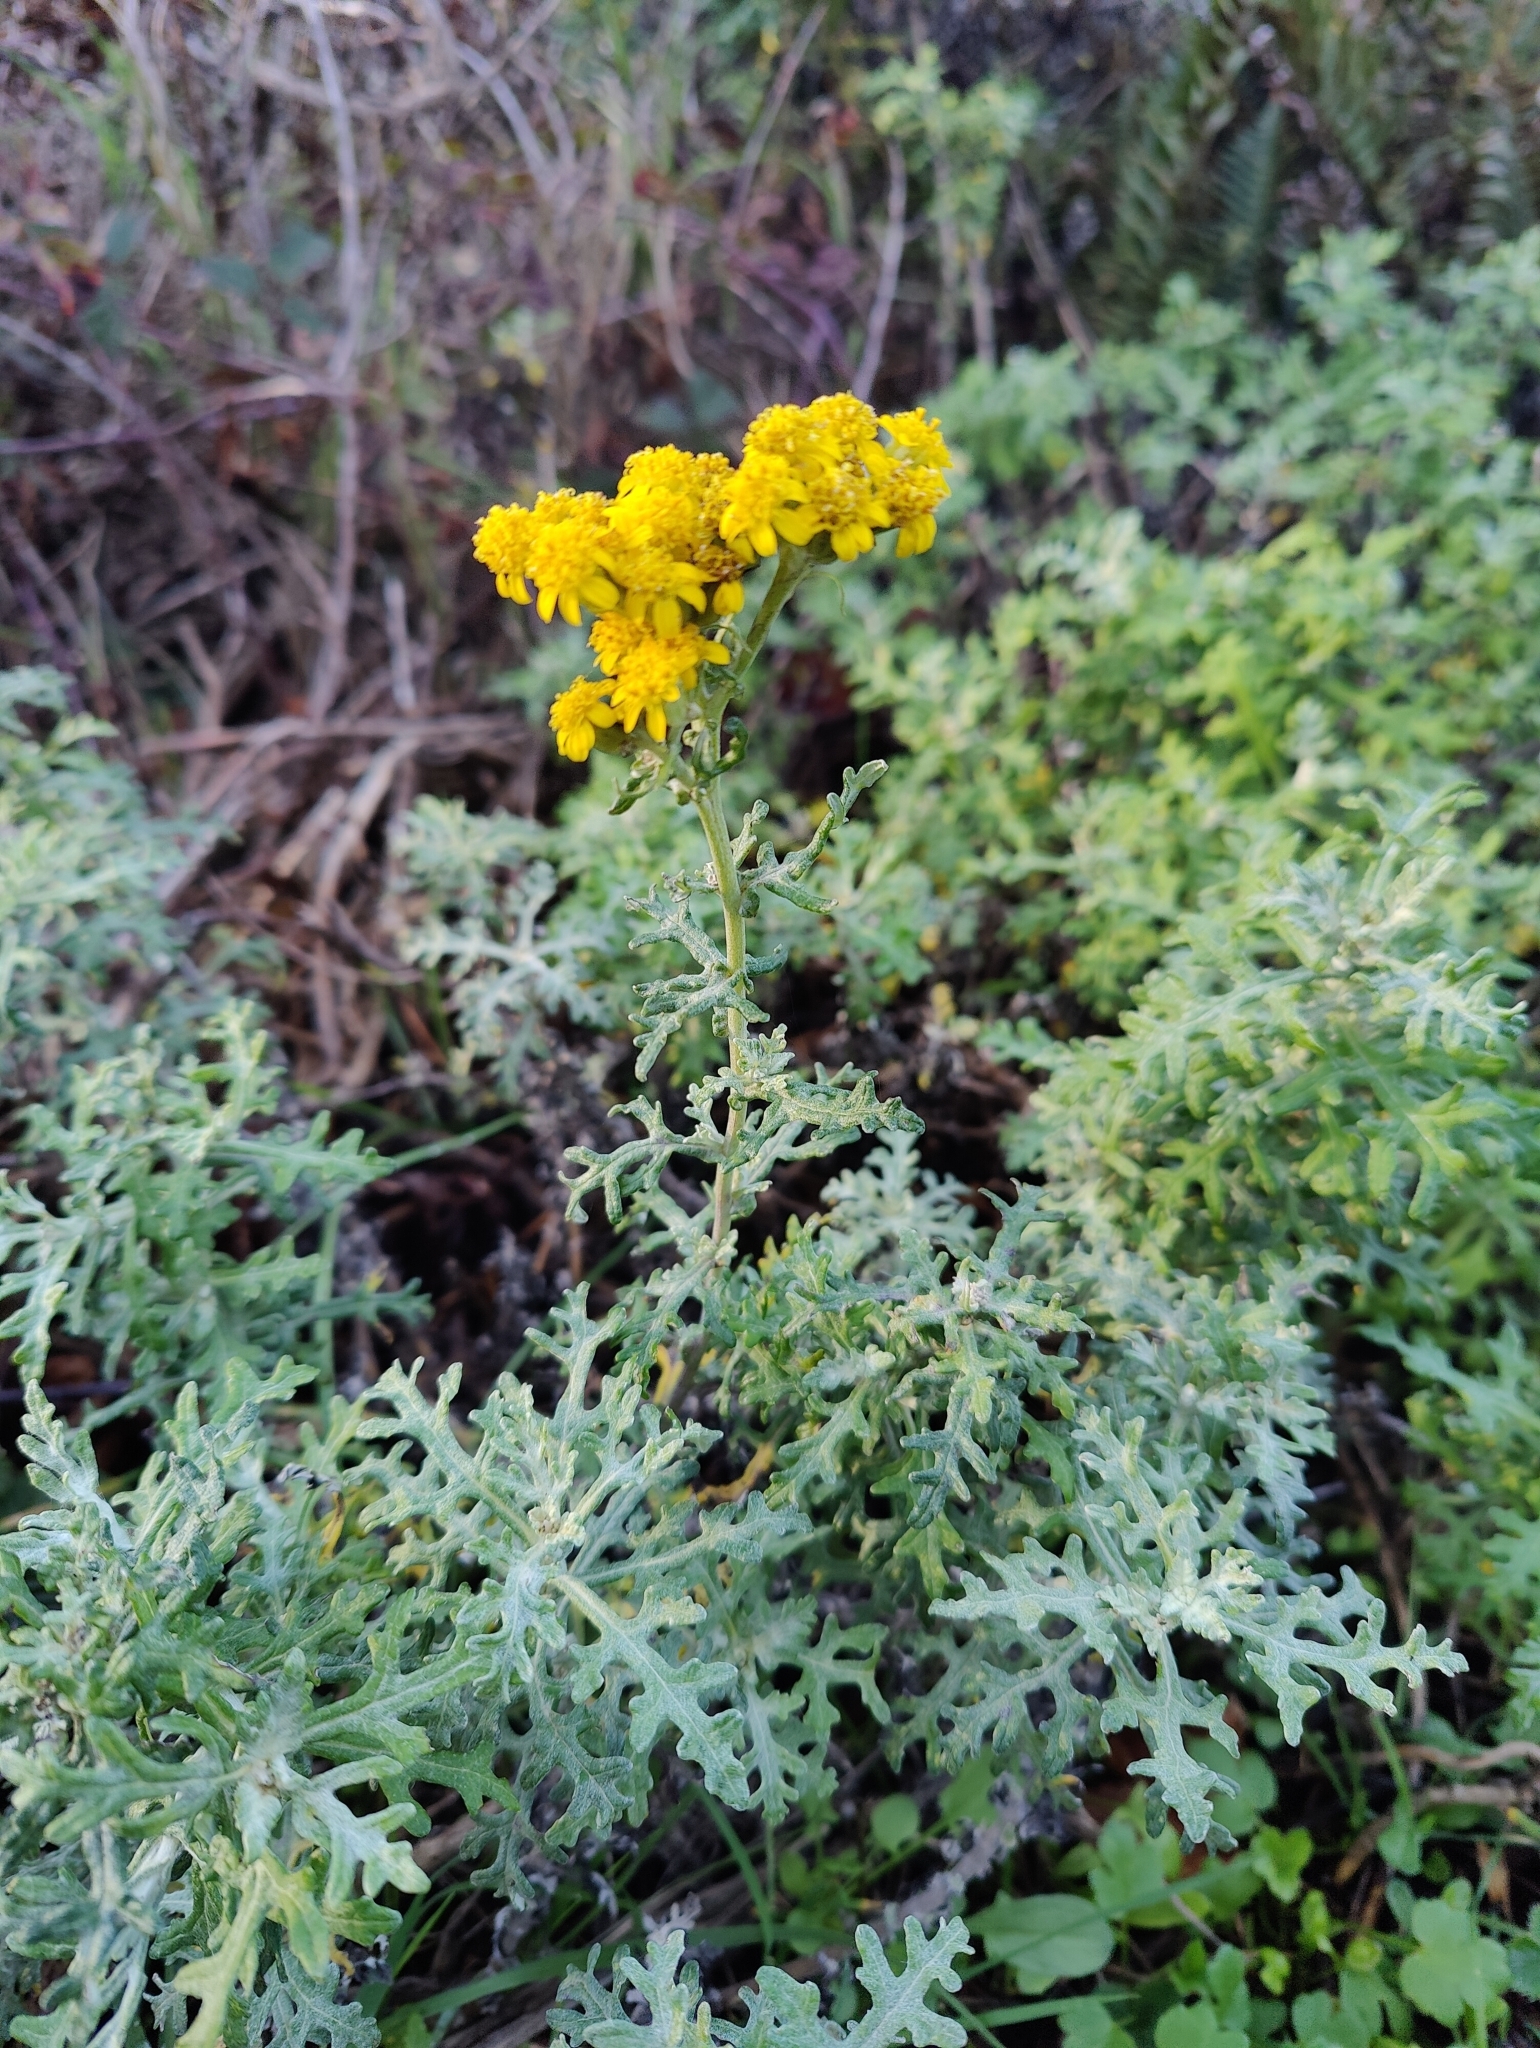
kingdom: Plantae
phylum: Tracheophyta
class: Magnoliopsida
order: Asterales
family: Asteraceae
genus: Eriophyllum
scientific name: Eriophyllum staechadifolium
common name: Lizardtail
